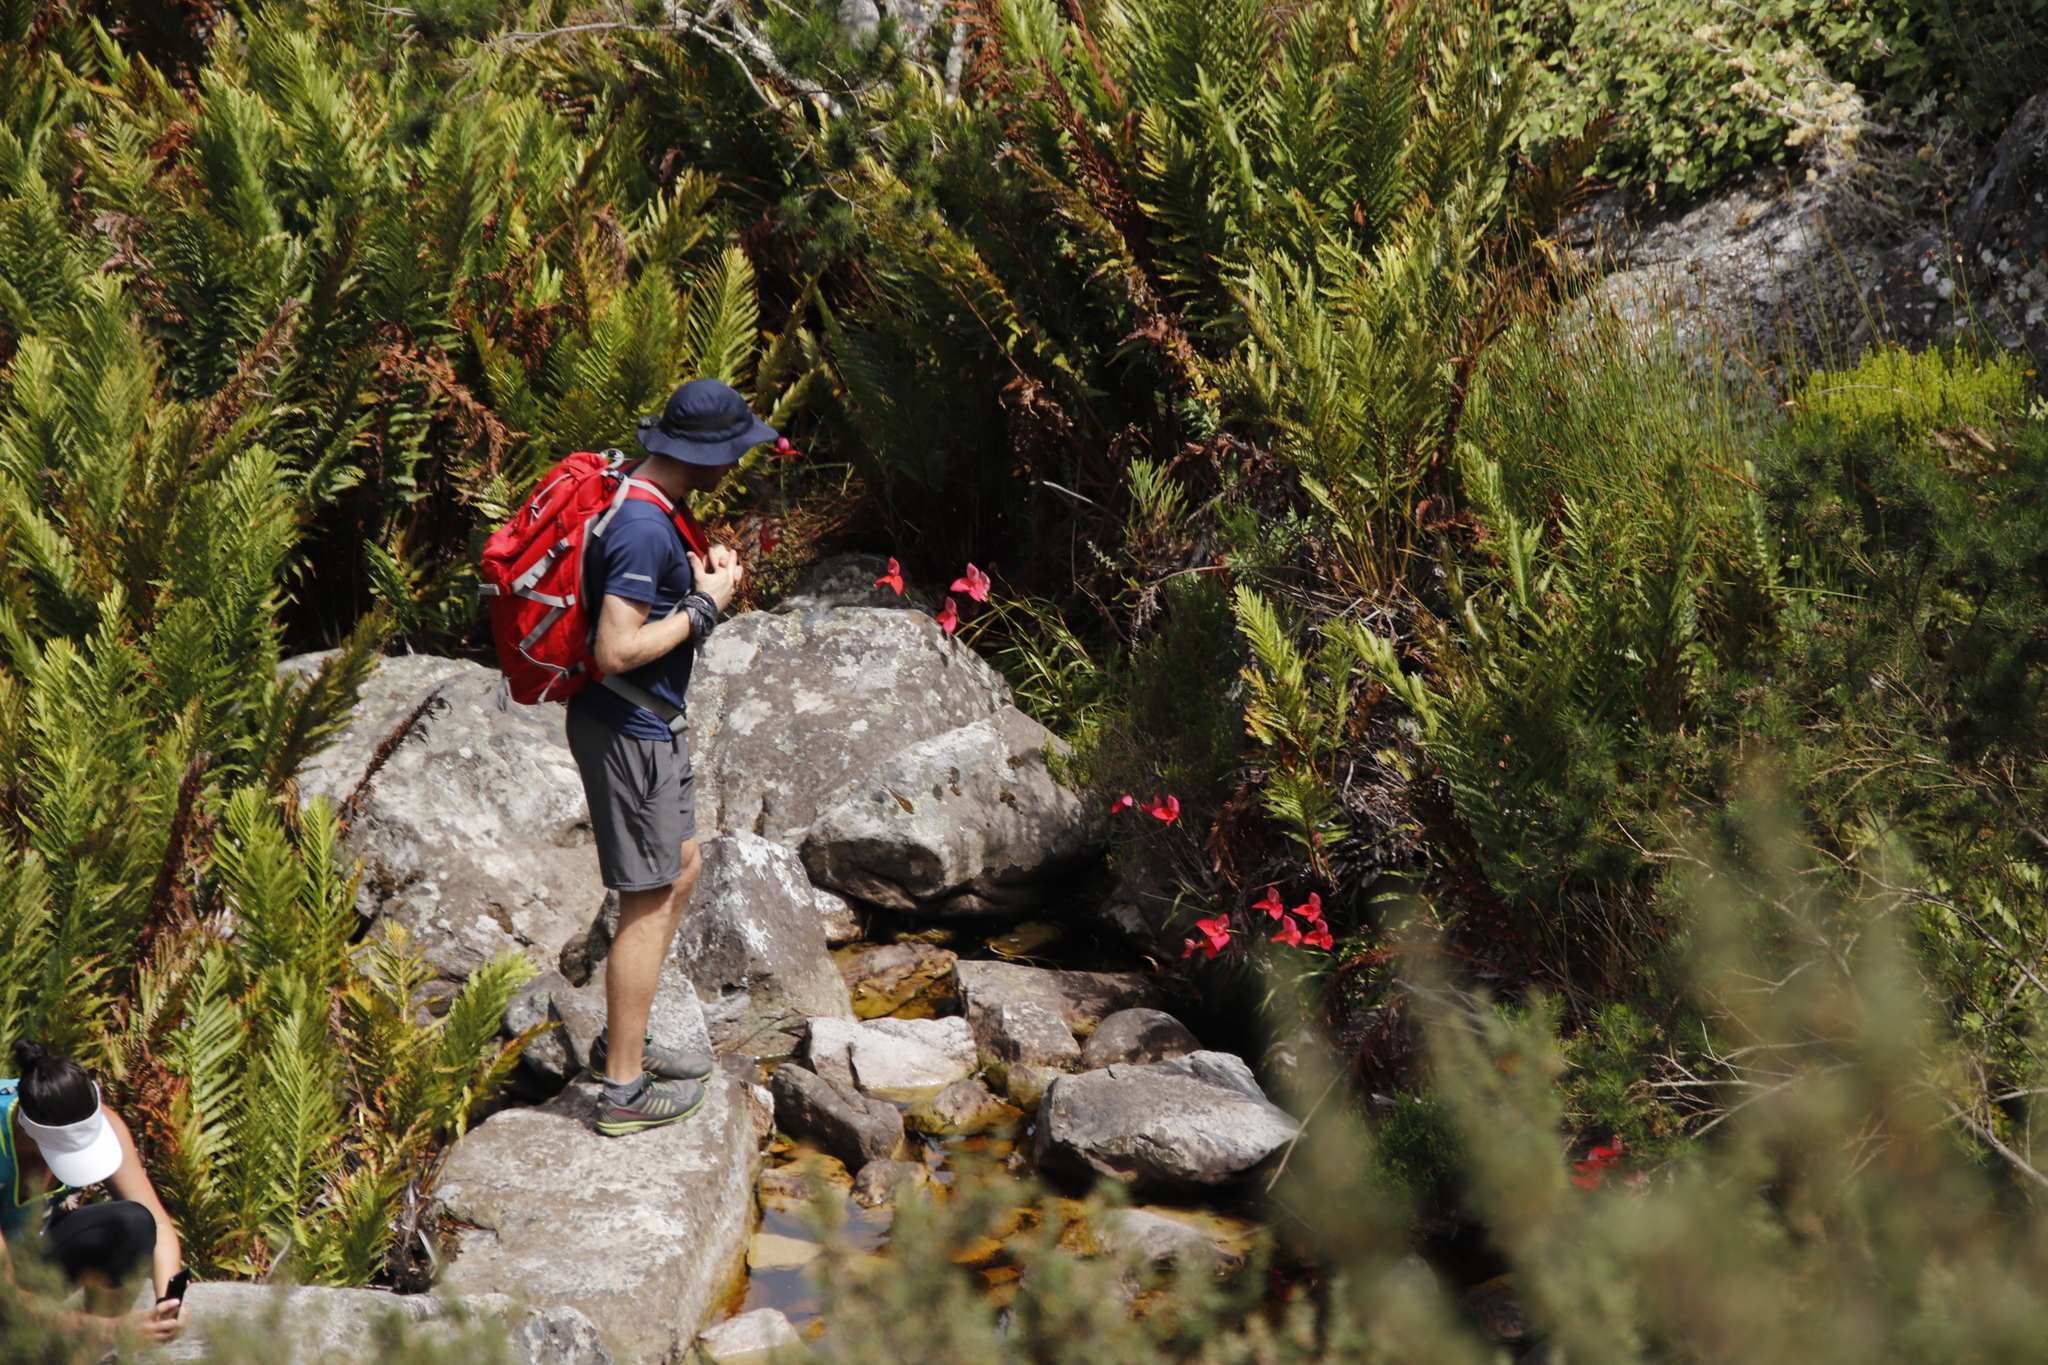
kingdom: Plantae
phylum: Tracheophyta
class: Liliopsida
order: Asparagales
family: Orchidaceae
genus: Disa
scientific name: Disa uniflora
